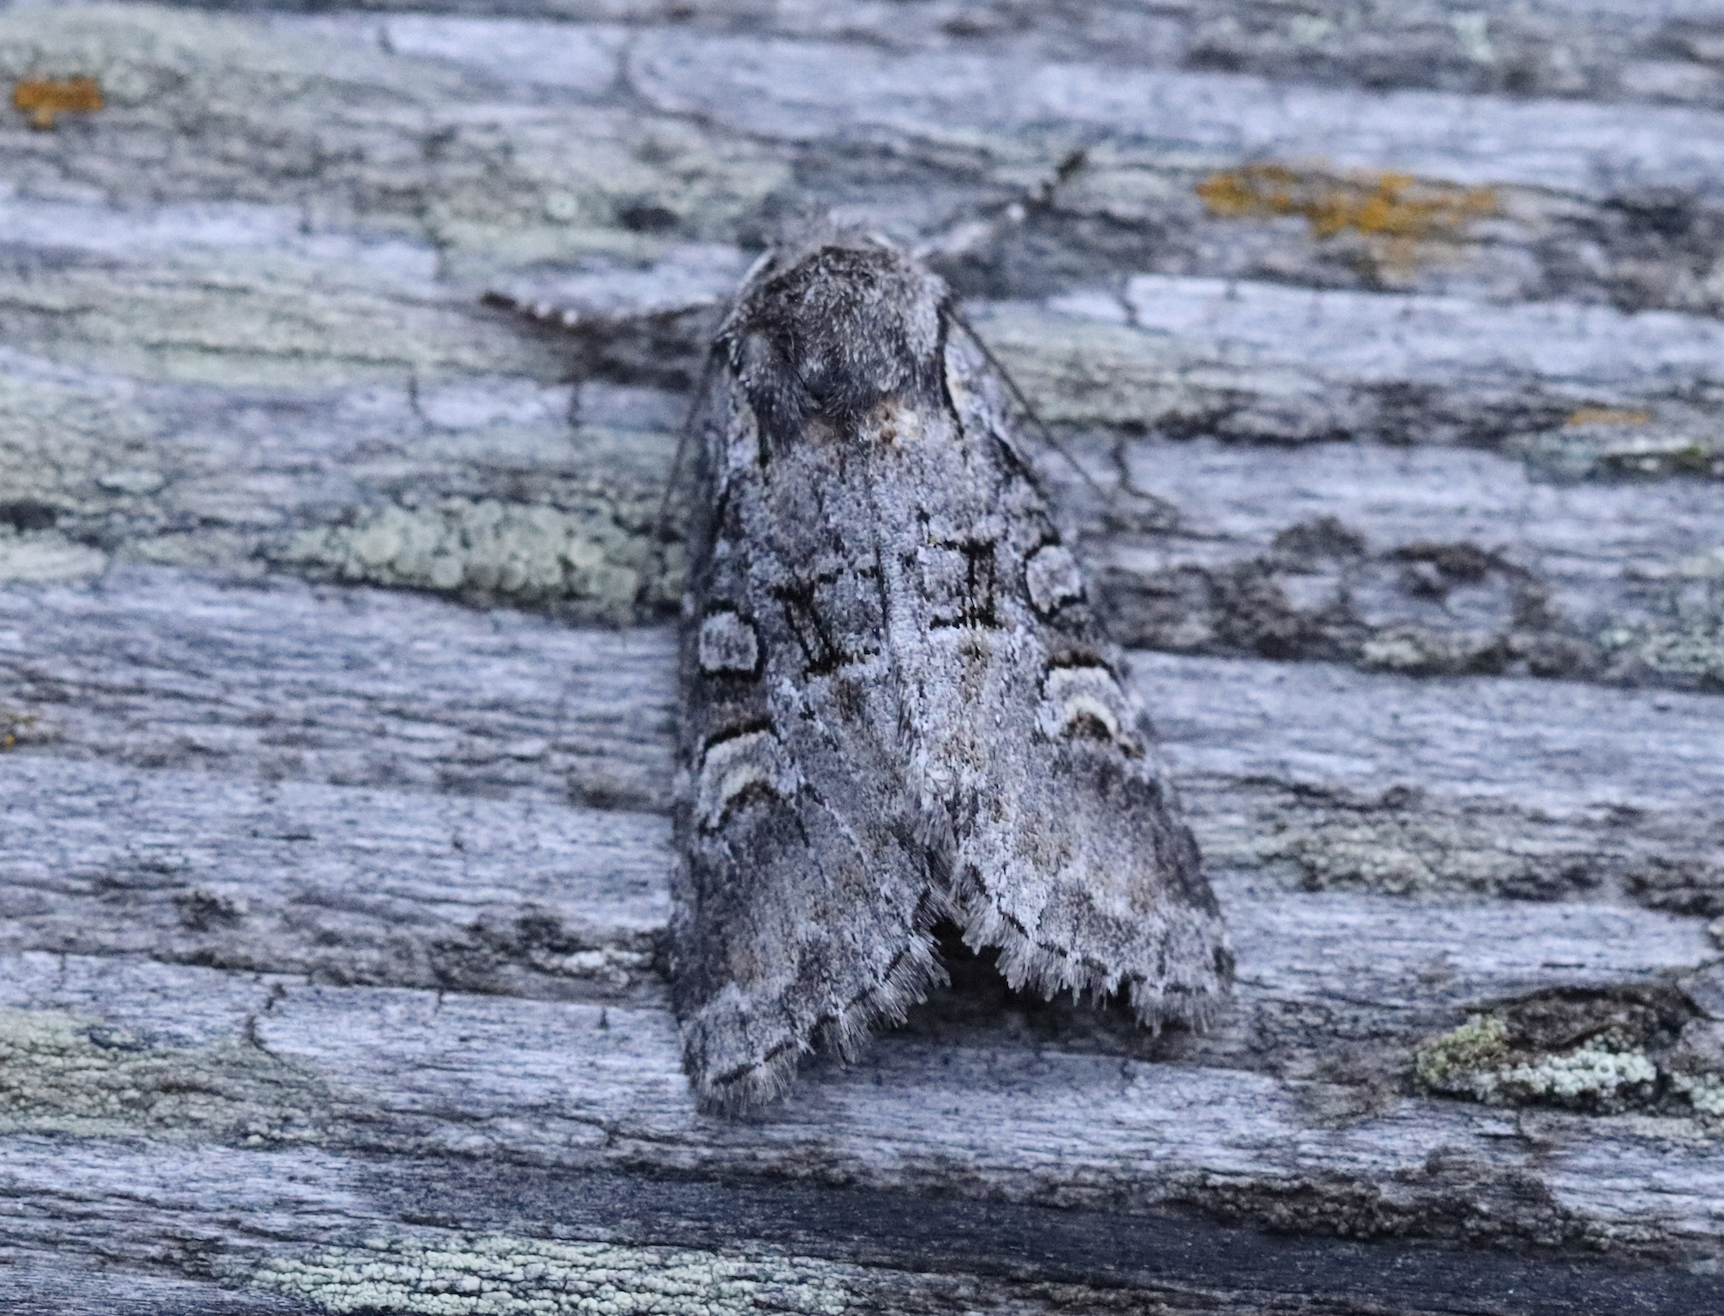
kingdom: Animalia
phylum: Arthropoda
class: Insecta
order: Lepidoptera
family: Noctuidae
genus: Brachylomia
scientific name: Brachylomia viminalis
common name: Minor shoulder-knot
